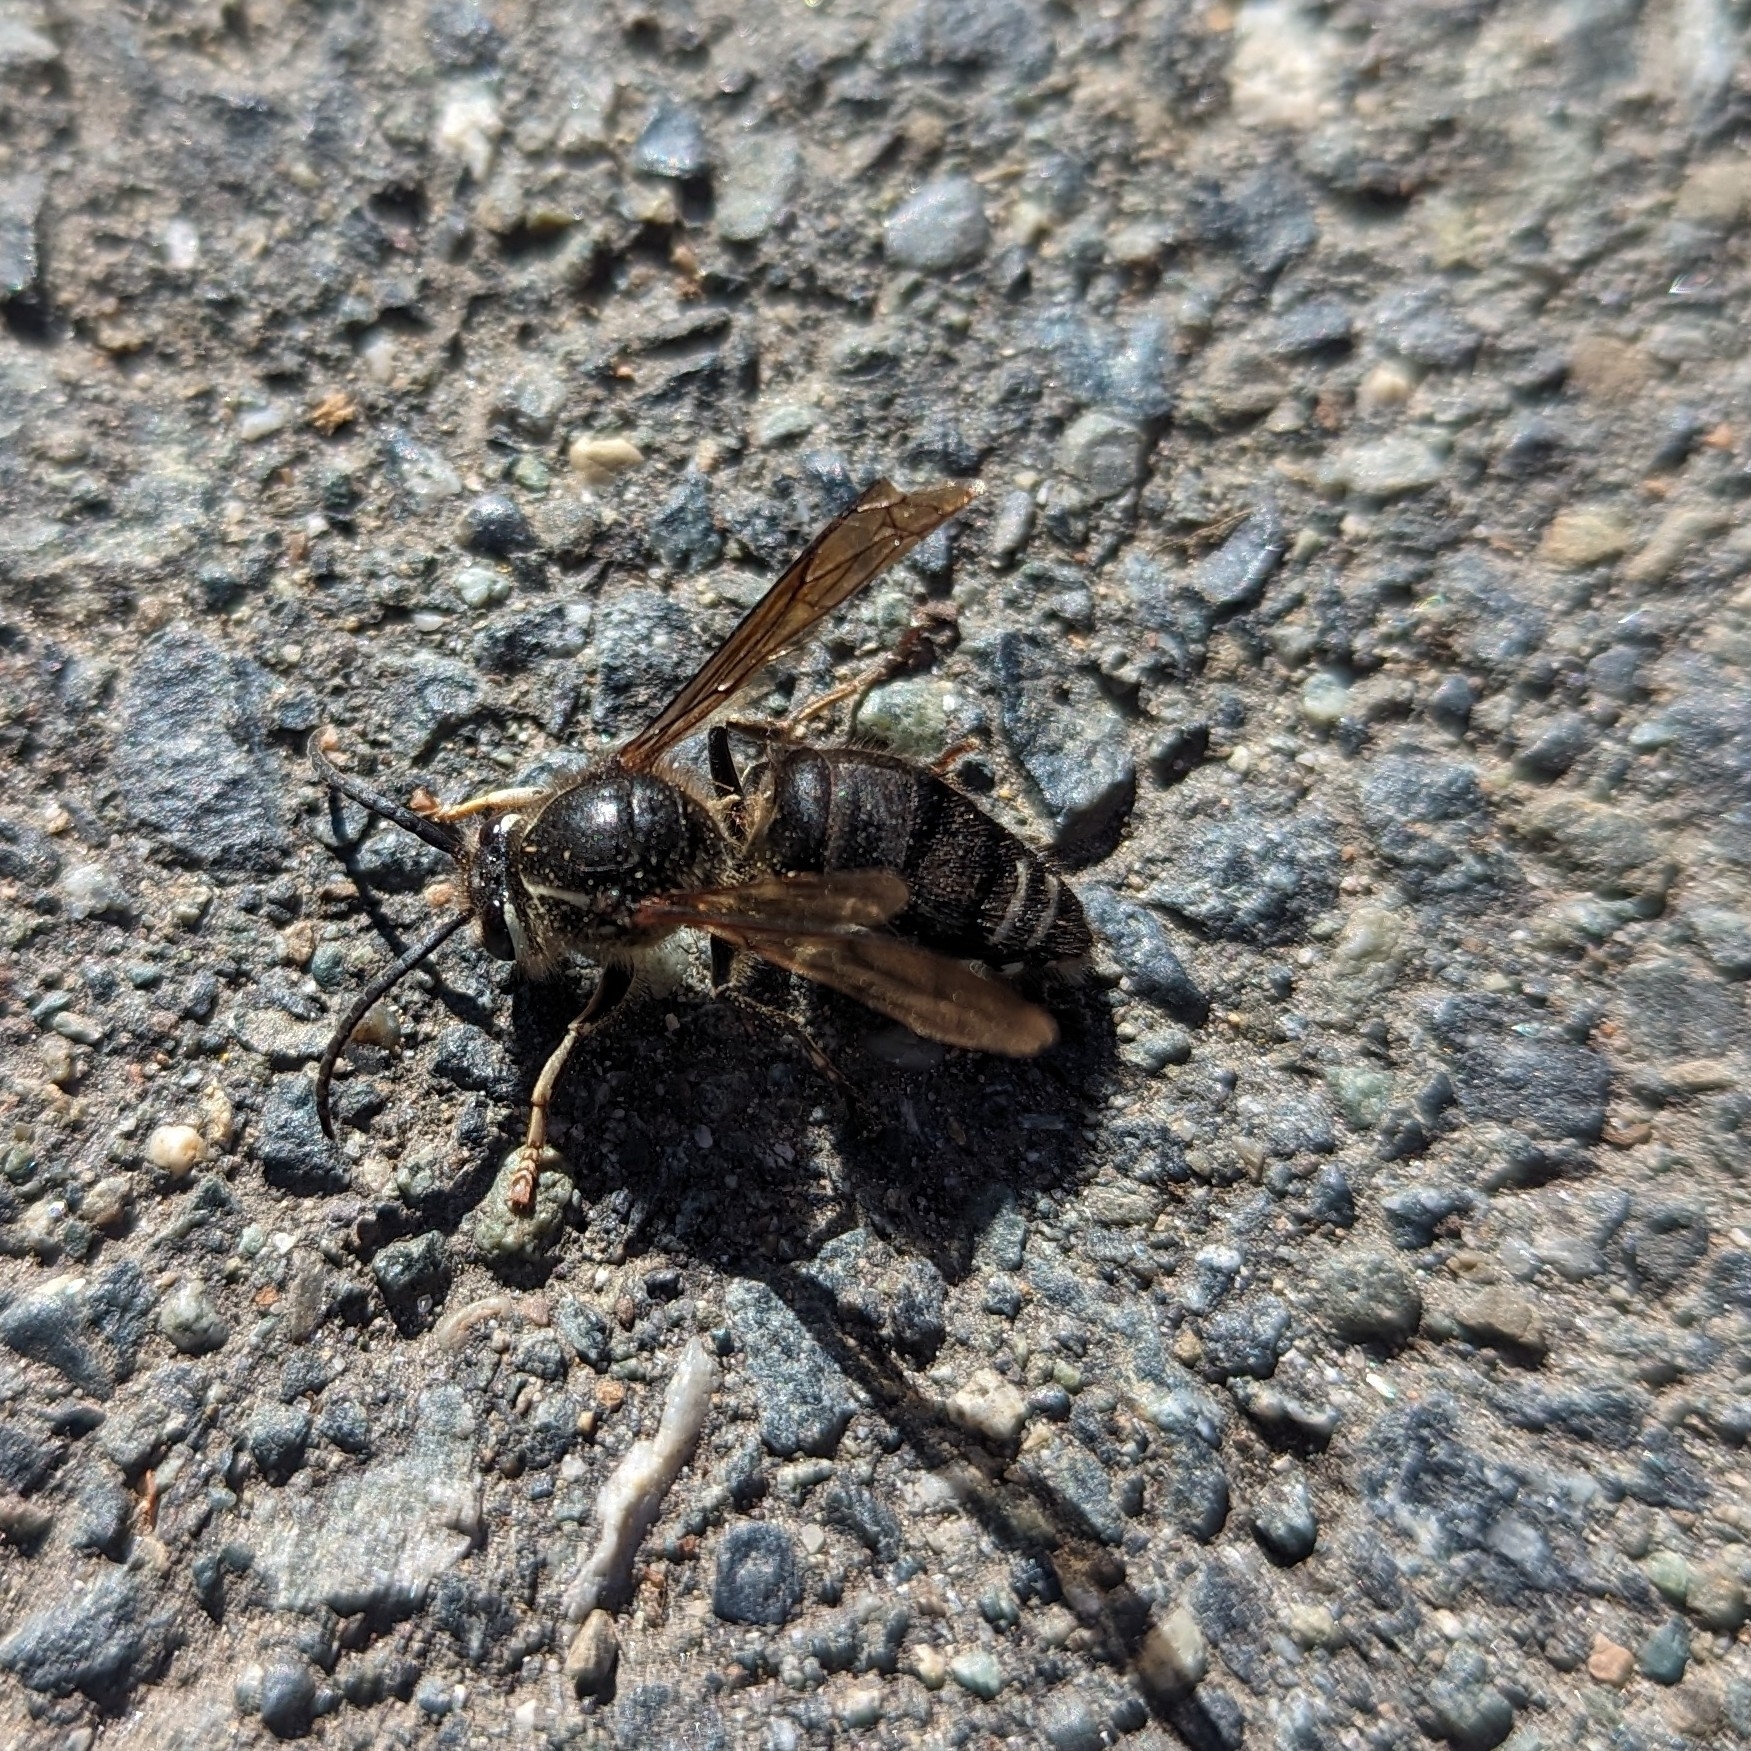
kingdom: Animalia
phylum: Arthropoda
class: Insecta
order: Hymenoptera
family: Vespidae
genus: Dolichovespula
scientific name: Dolichovespula maculata
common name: Bald-faced hornet
